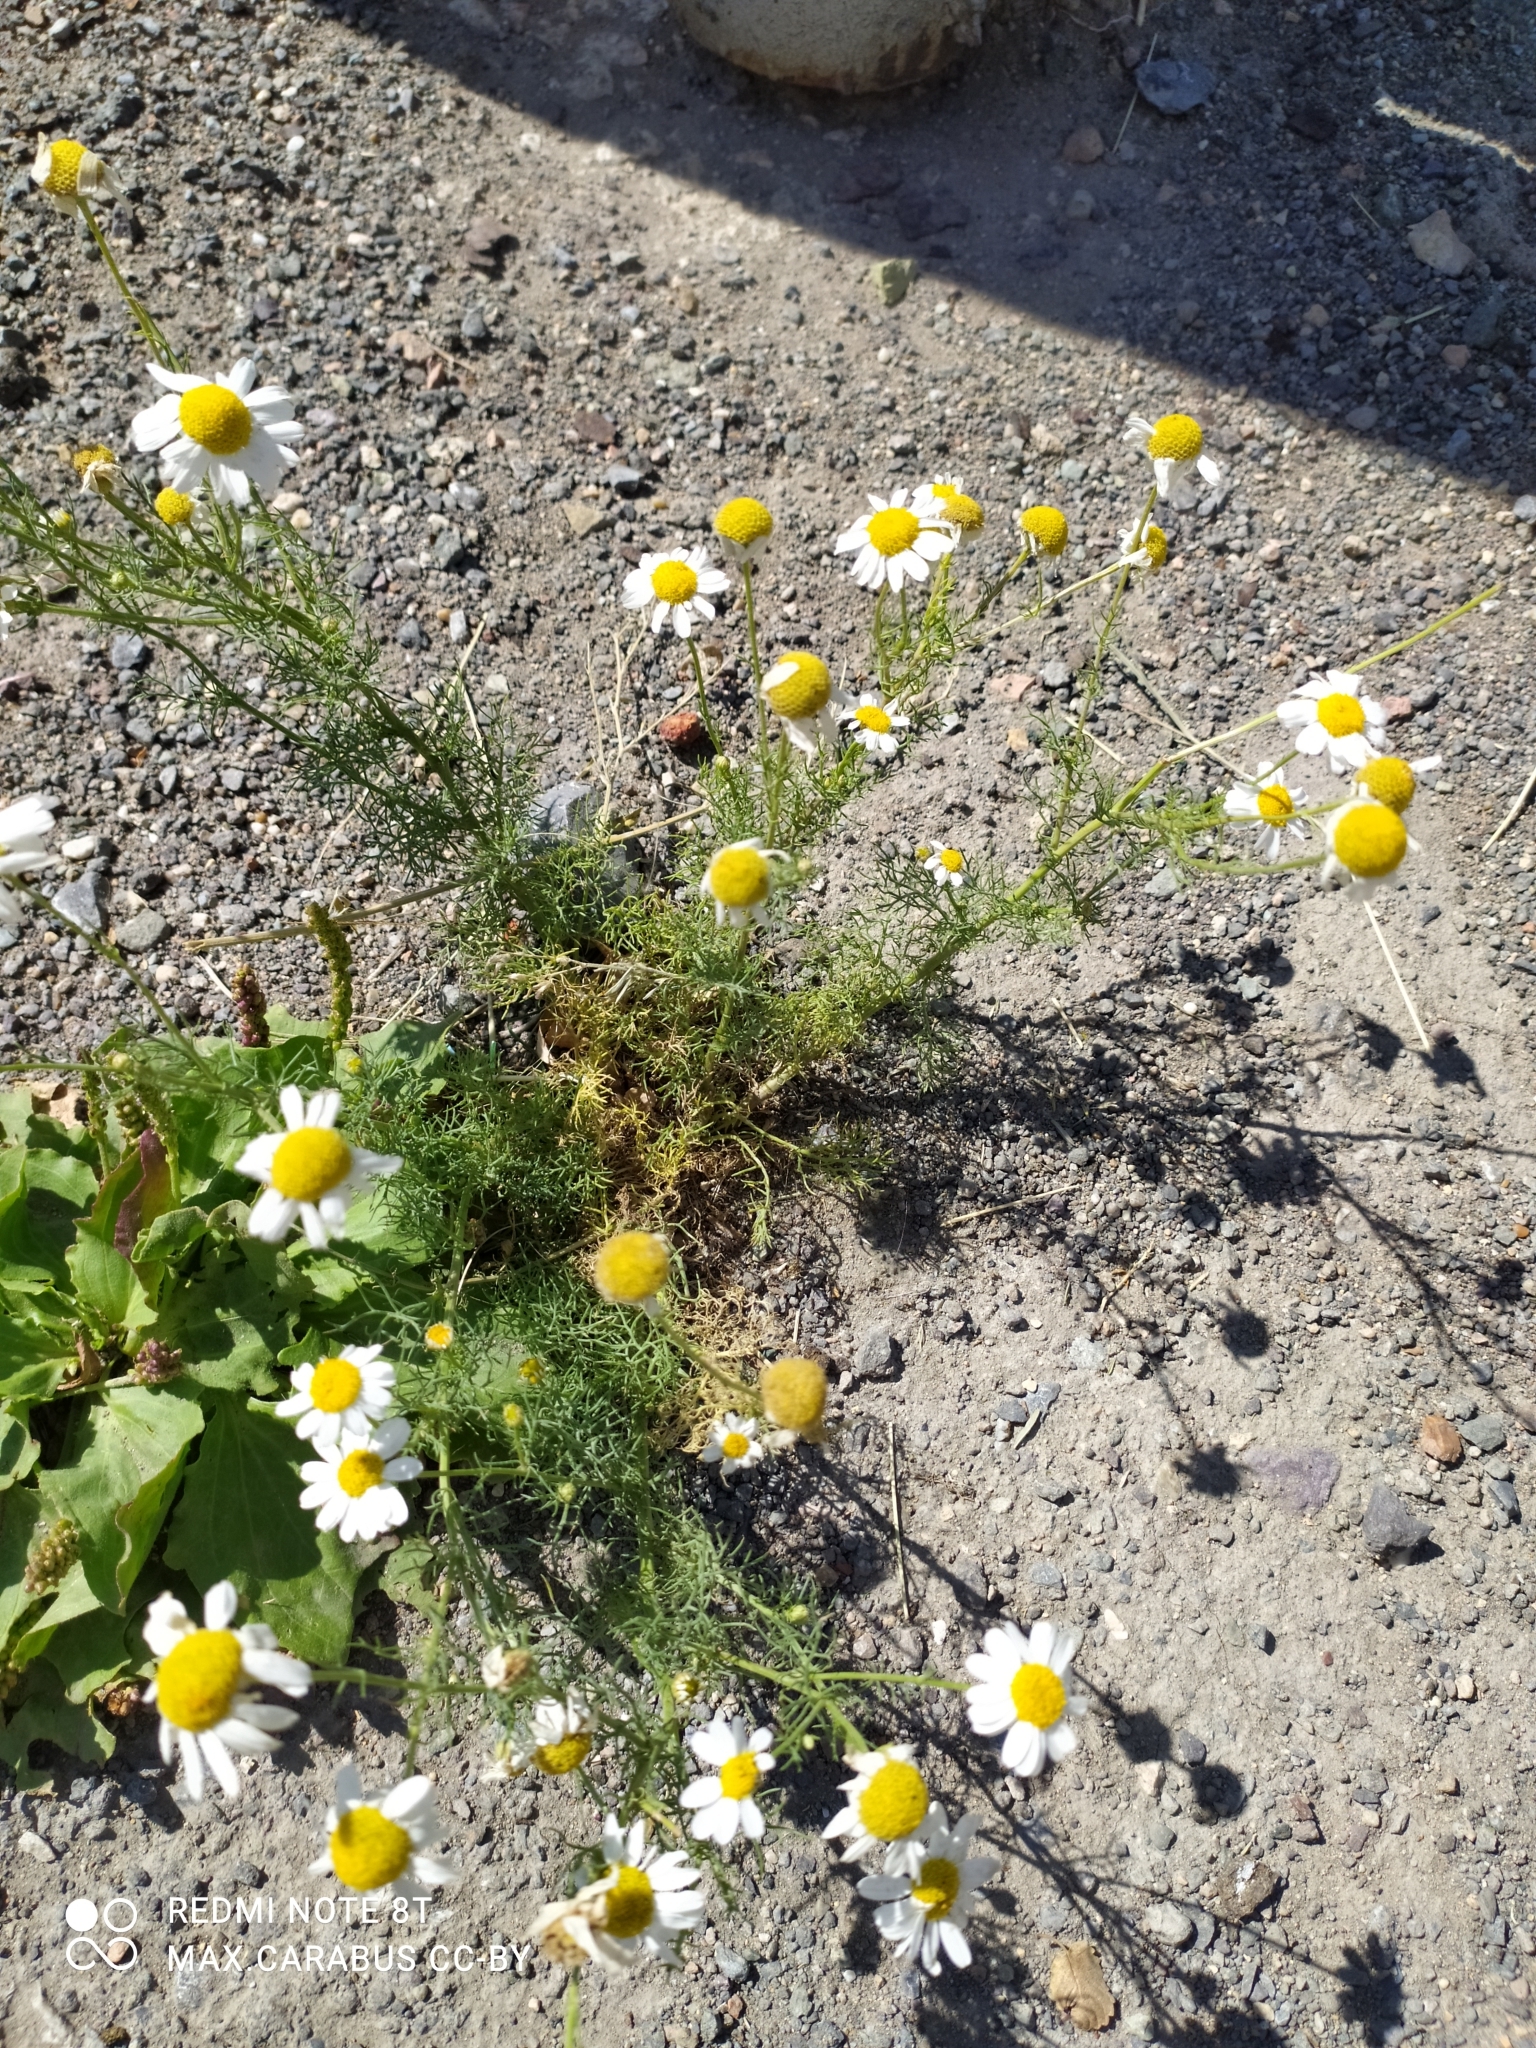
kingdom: Plantae
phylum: Tracheophyta
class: Magnoliopsida
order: Asterales
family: Asteraceae
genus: Tripleurospermum
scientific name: Tripleurospermum inodorum
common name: Scentless mayweed
